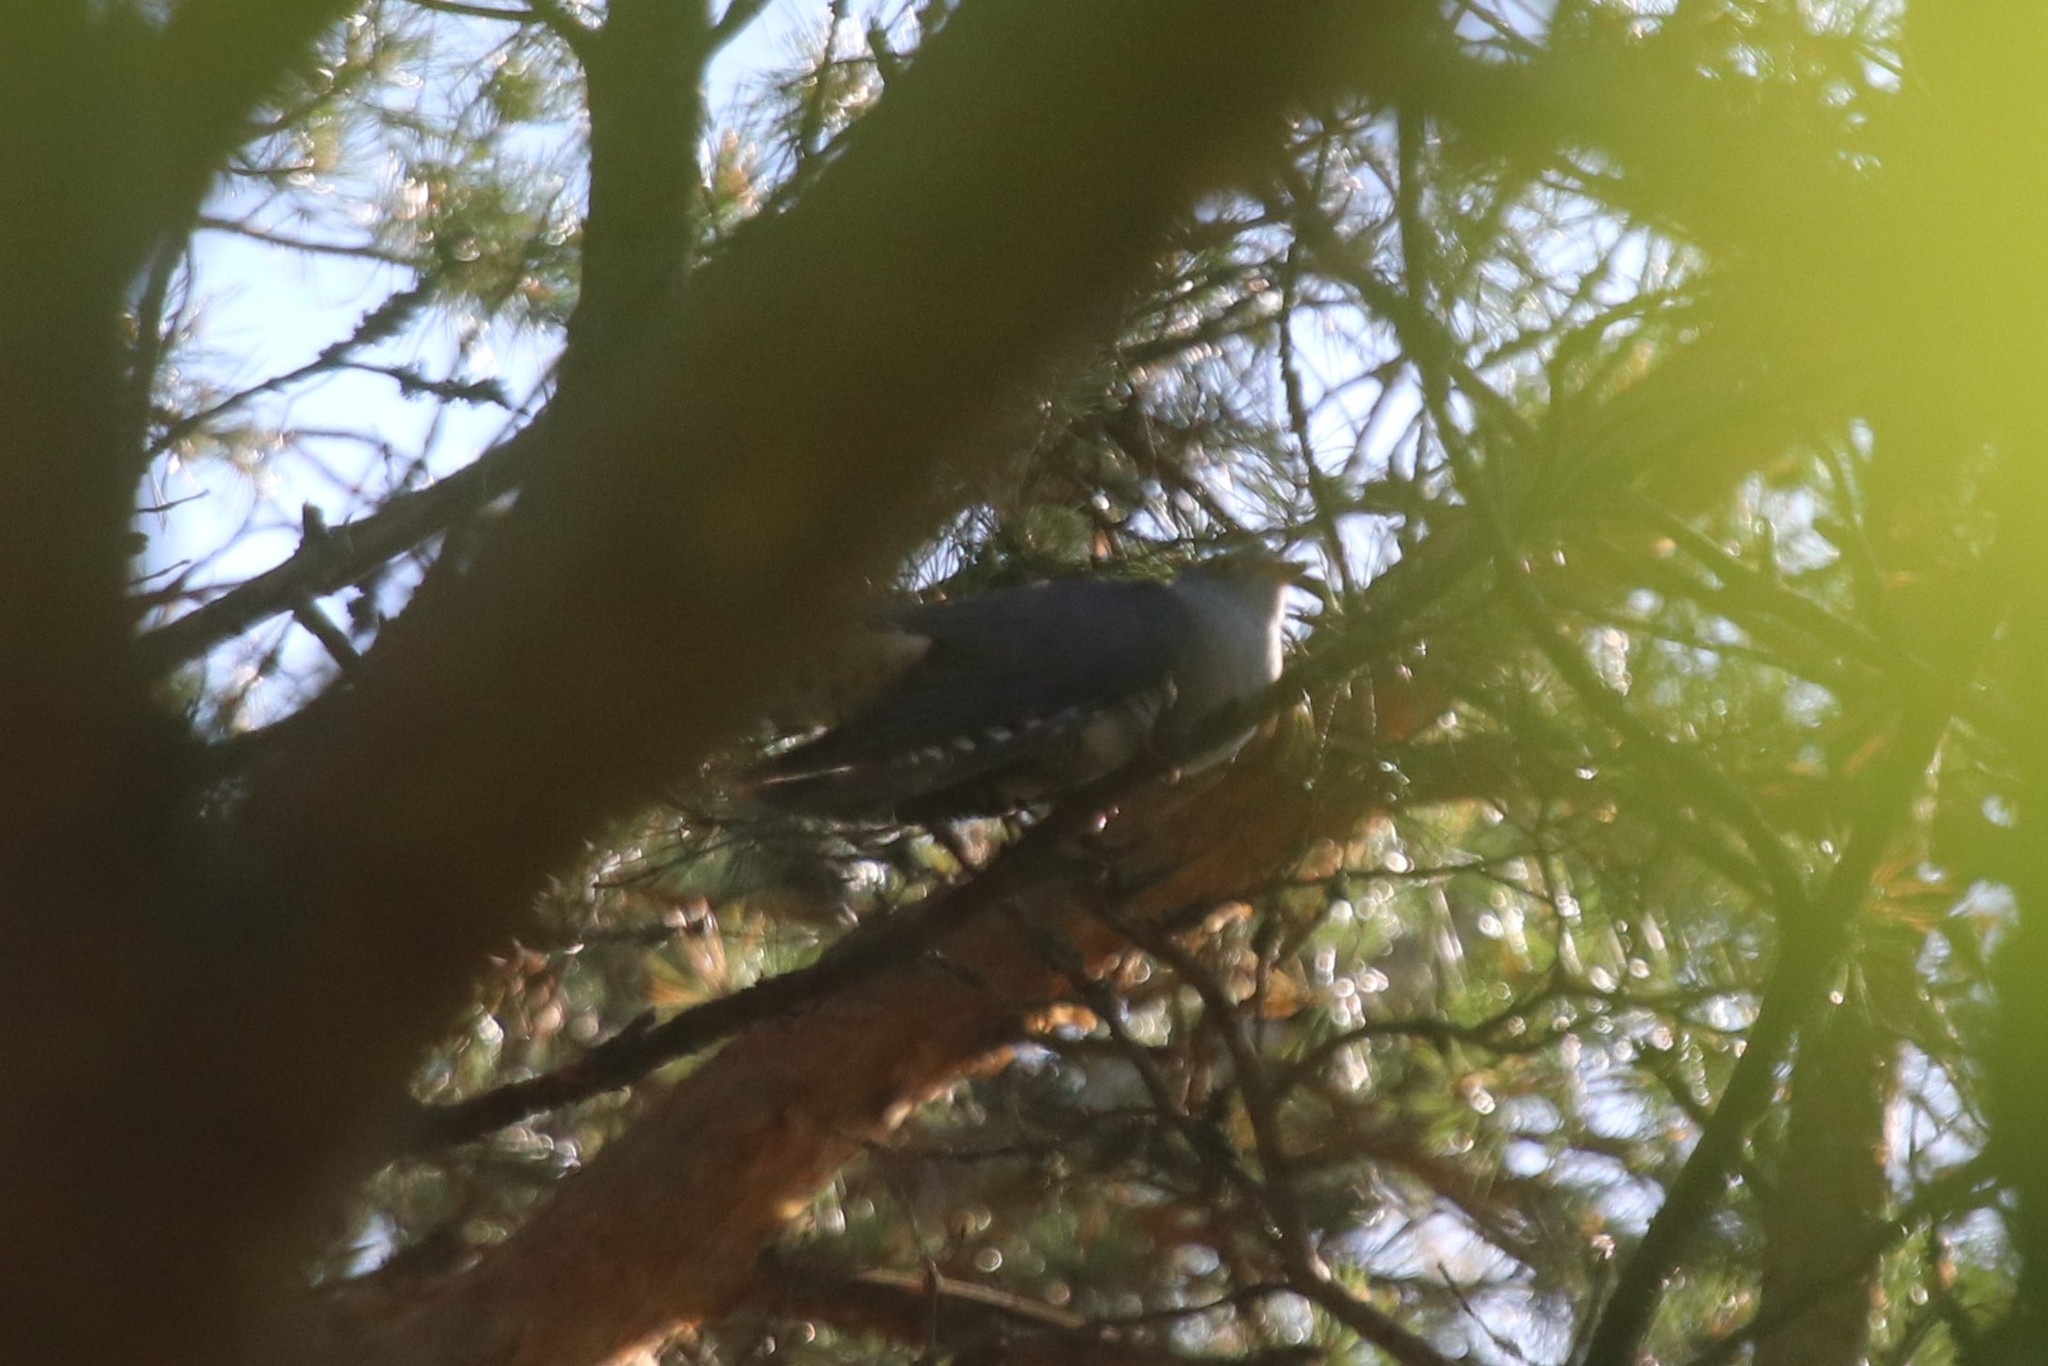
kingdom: Animalia
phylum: Chordata
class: Aves
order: Cuculiformes
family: Cuculidae
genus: Cuculus
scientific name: Cuculus optatus
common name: Oriental cuckoo
